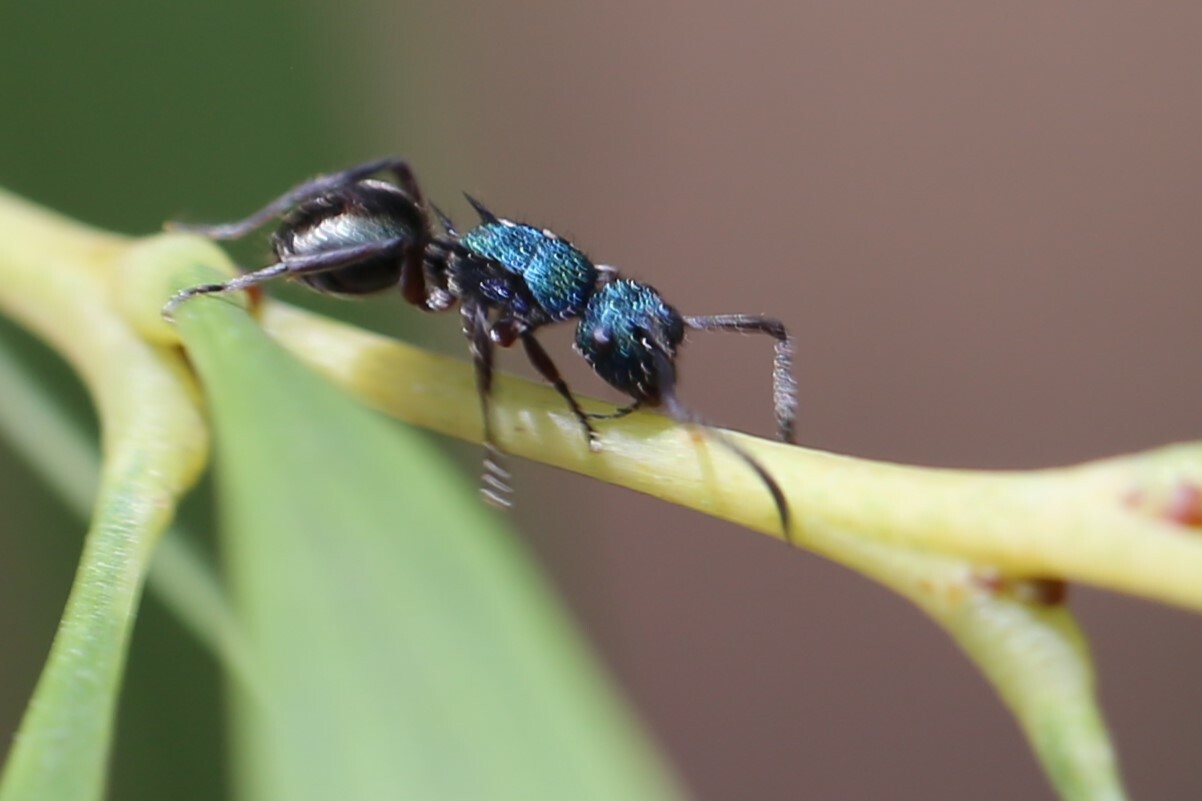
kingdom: Animalia
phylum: Arthropoda
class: Insecta
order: Hymenoptera
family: Formicidae
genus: Polyrhachis
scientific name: Polyrhachis hookeri
